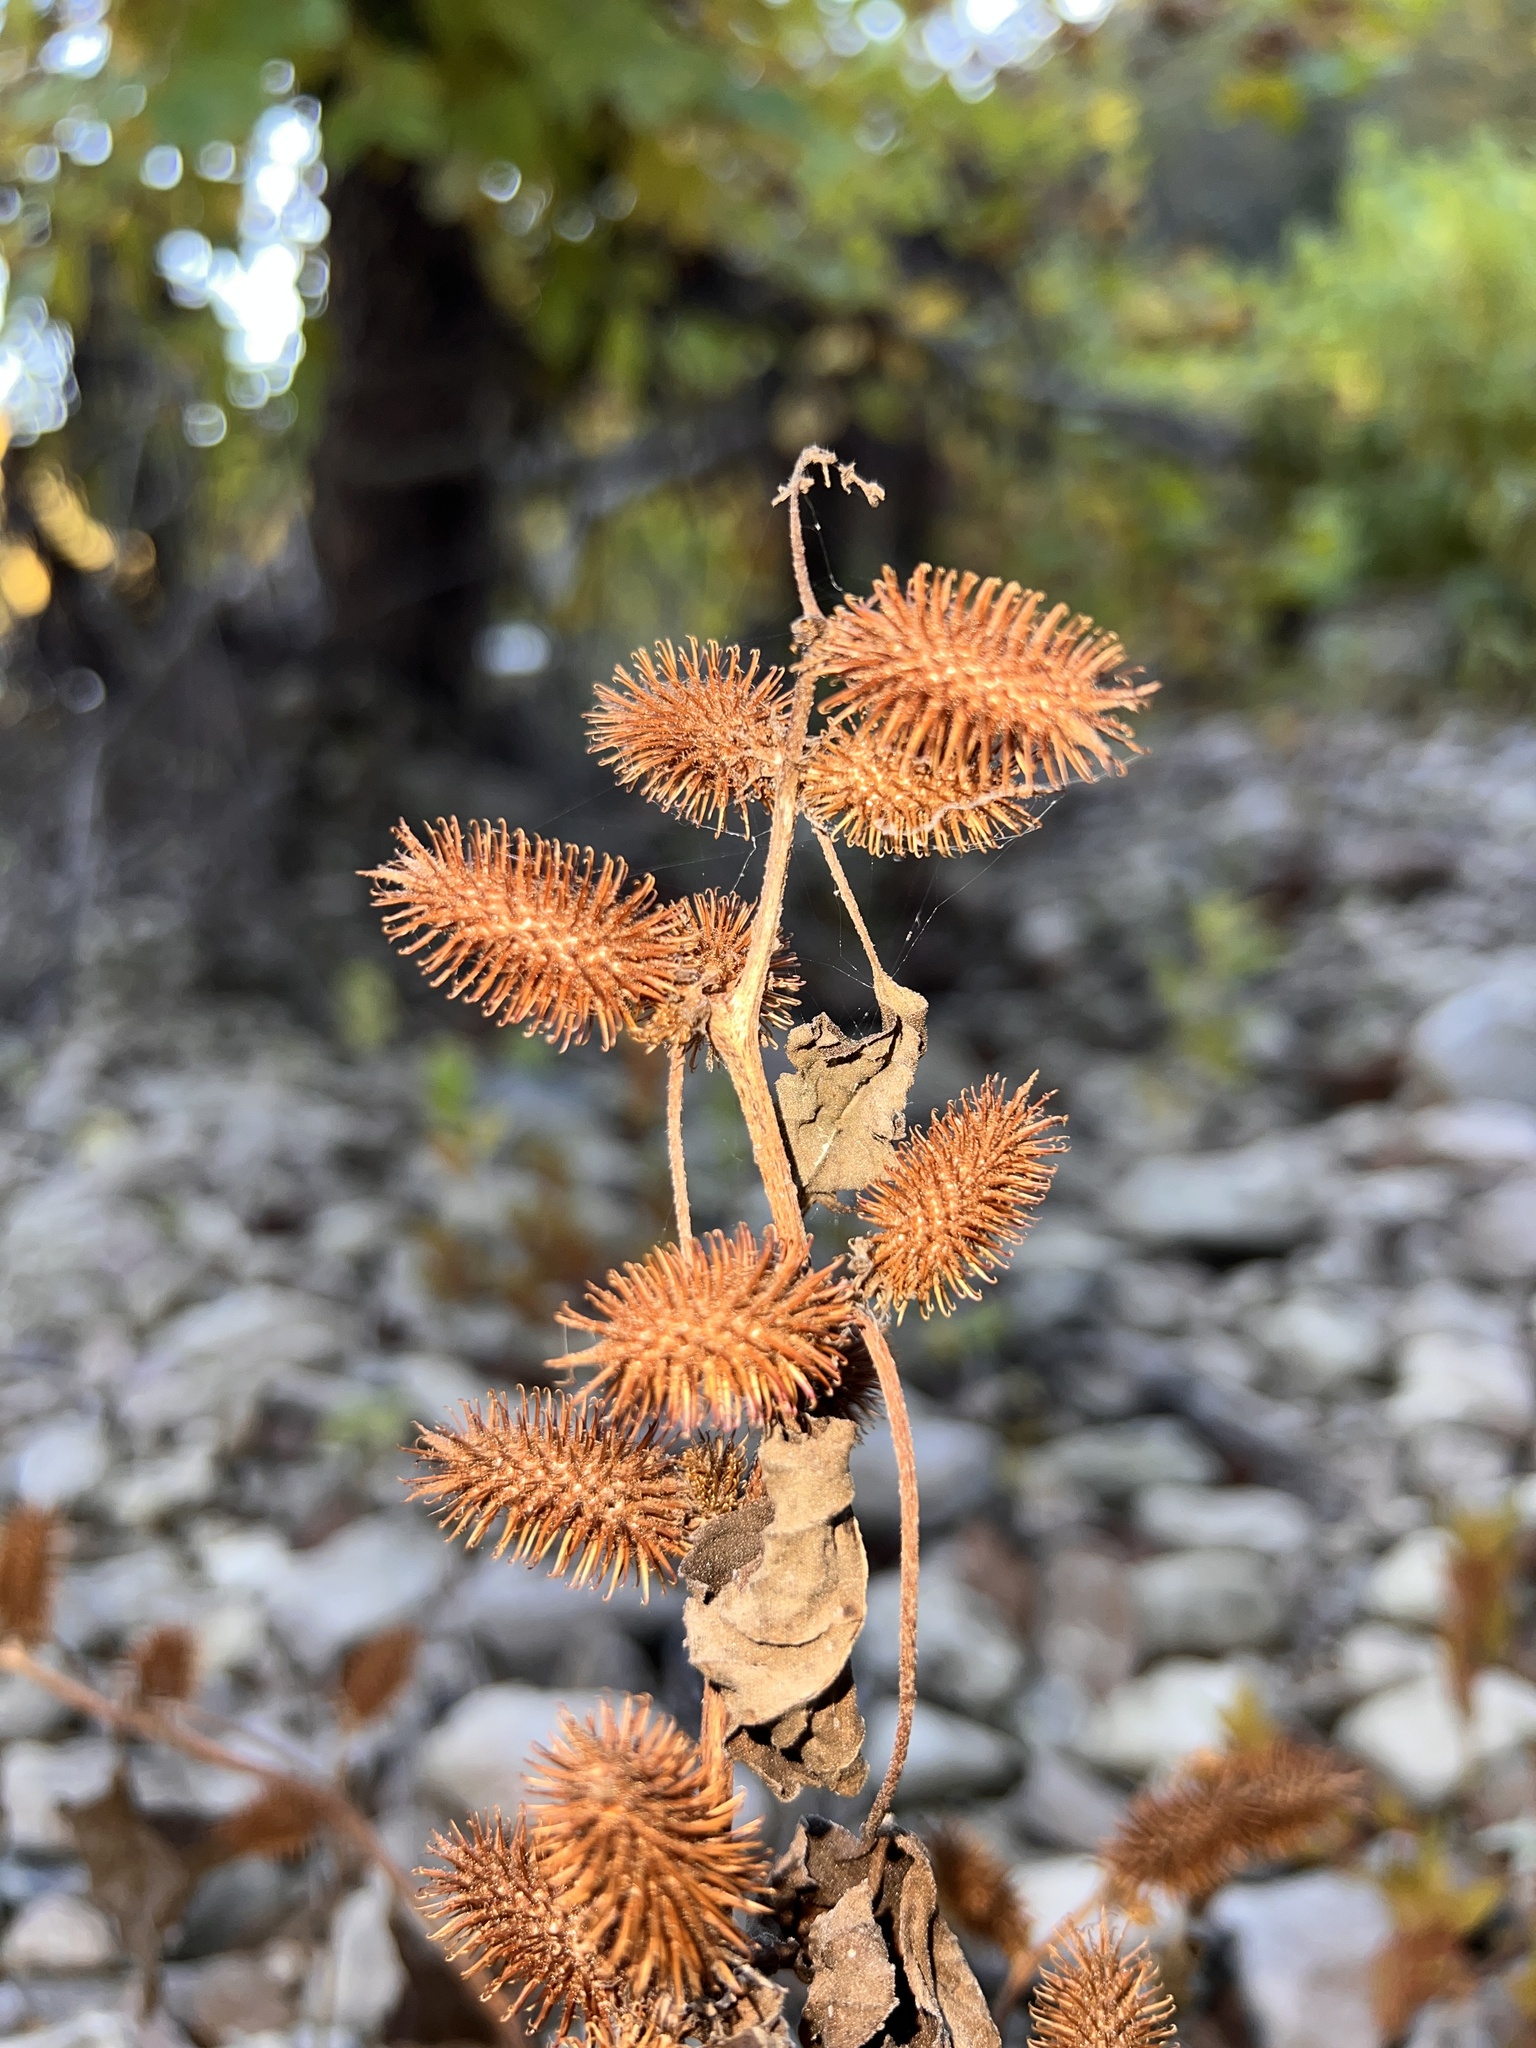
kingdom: Plantae
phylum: Tracheophyta
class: Magnoliopsida
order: Asterales
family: Asteraceae
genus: Xanthium
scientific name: Xanthium strumarium
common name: Rough cocklebur
